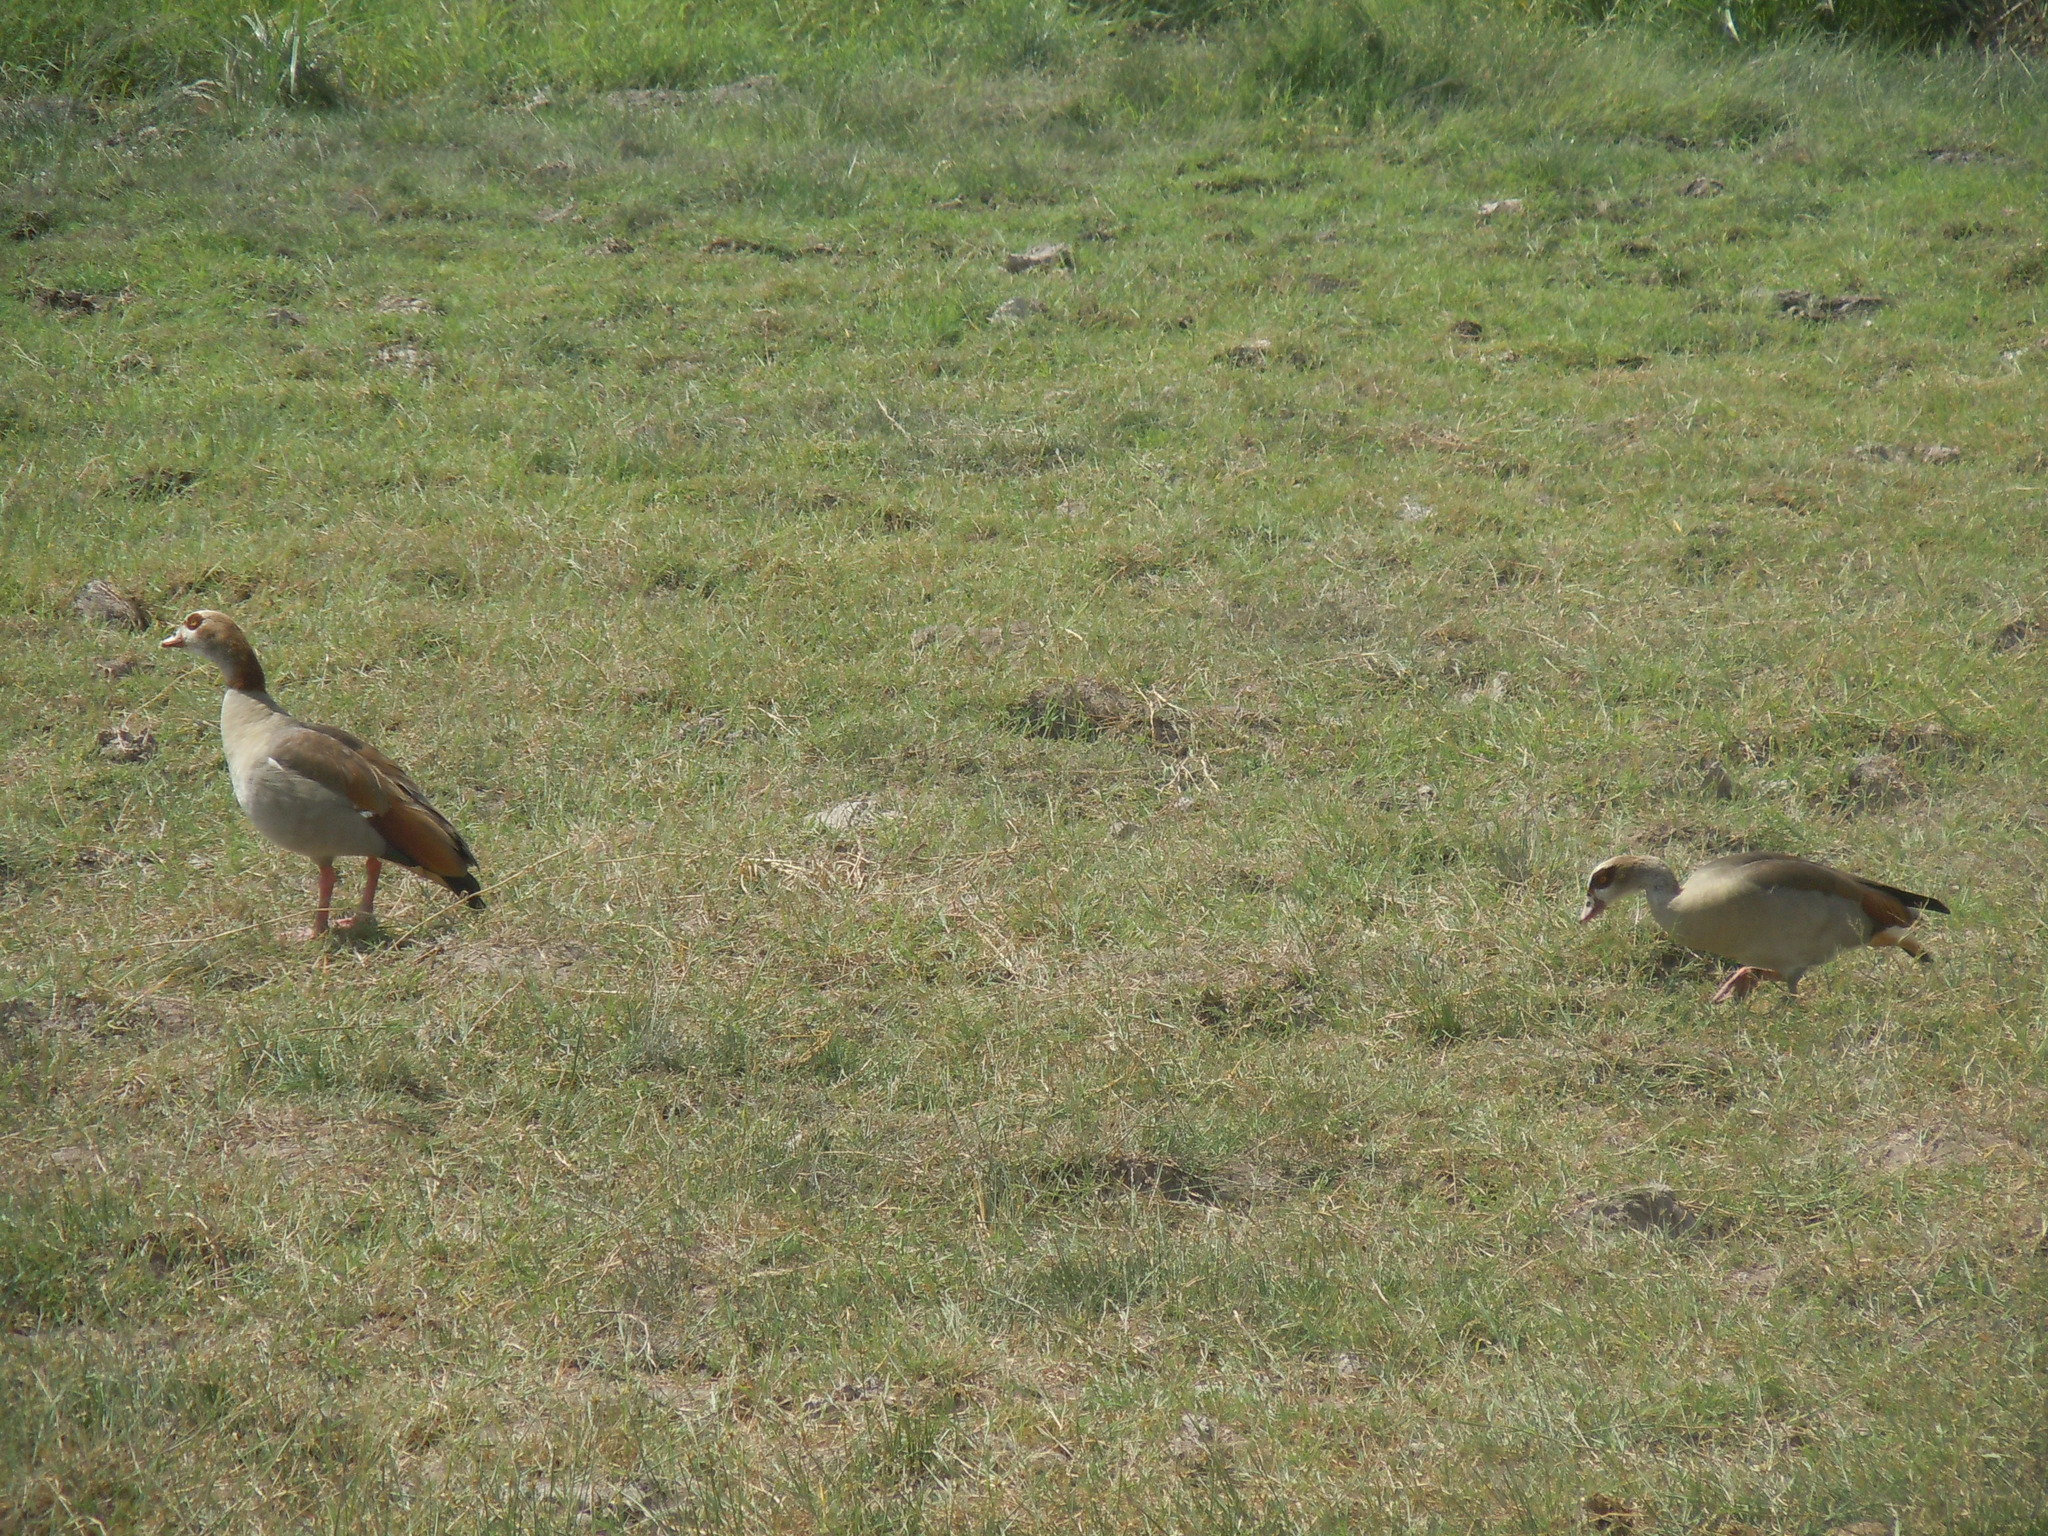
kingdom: Animalia
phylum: Chordata
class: Aves
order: Anseriformes
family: Anatidae
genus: Alopochen
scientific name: Alopochen aegyptiaca
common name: Egyptian goose
